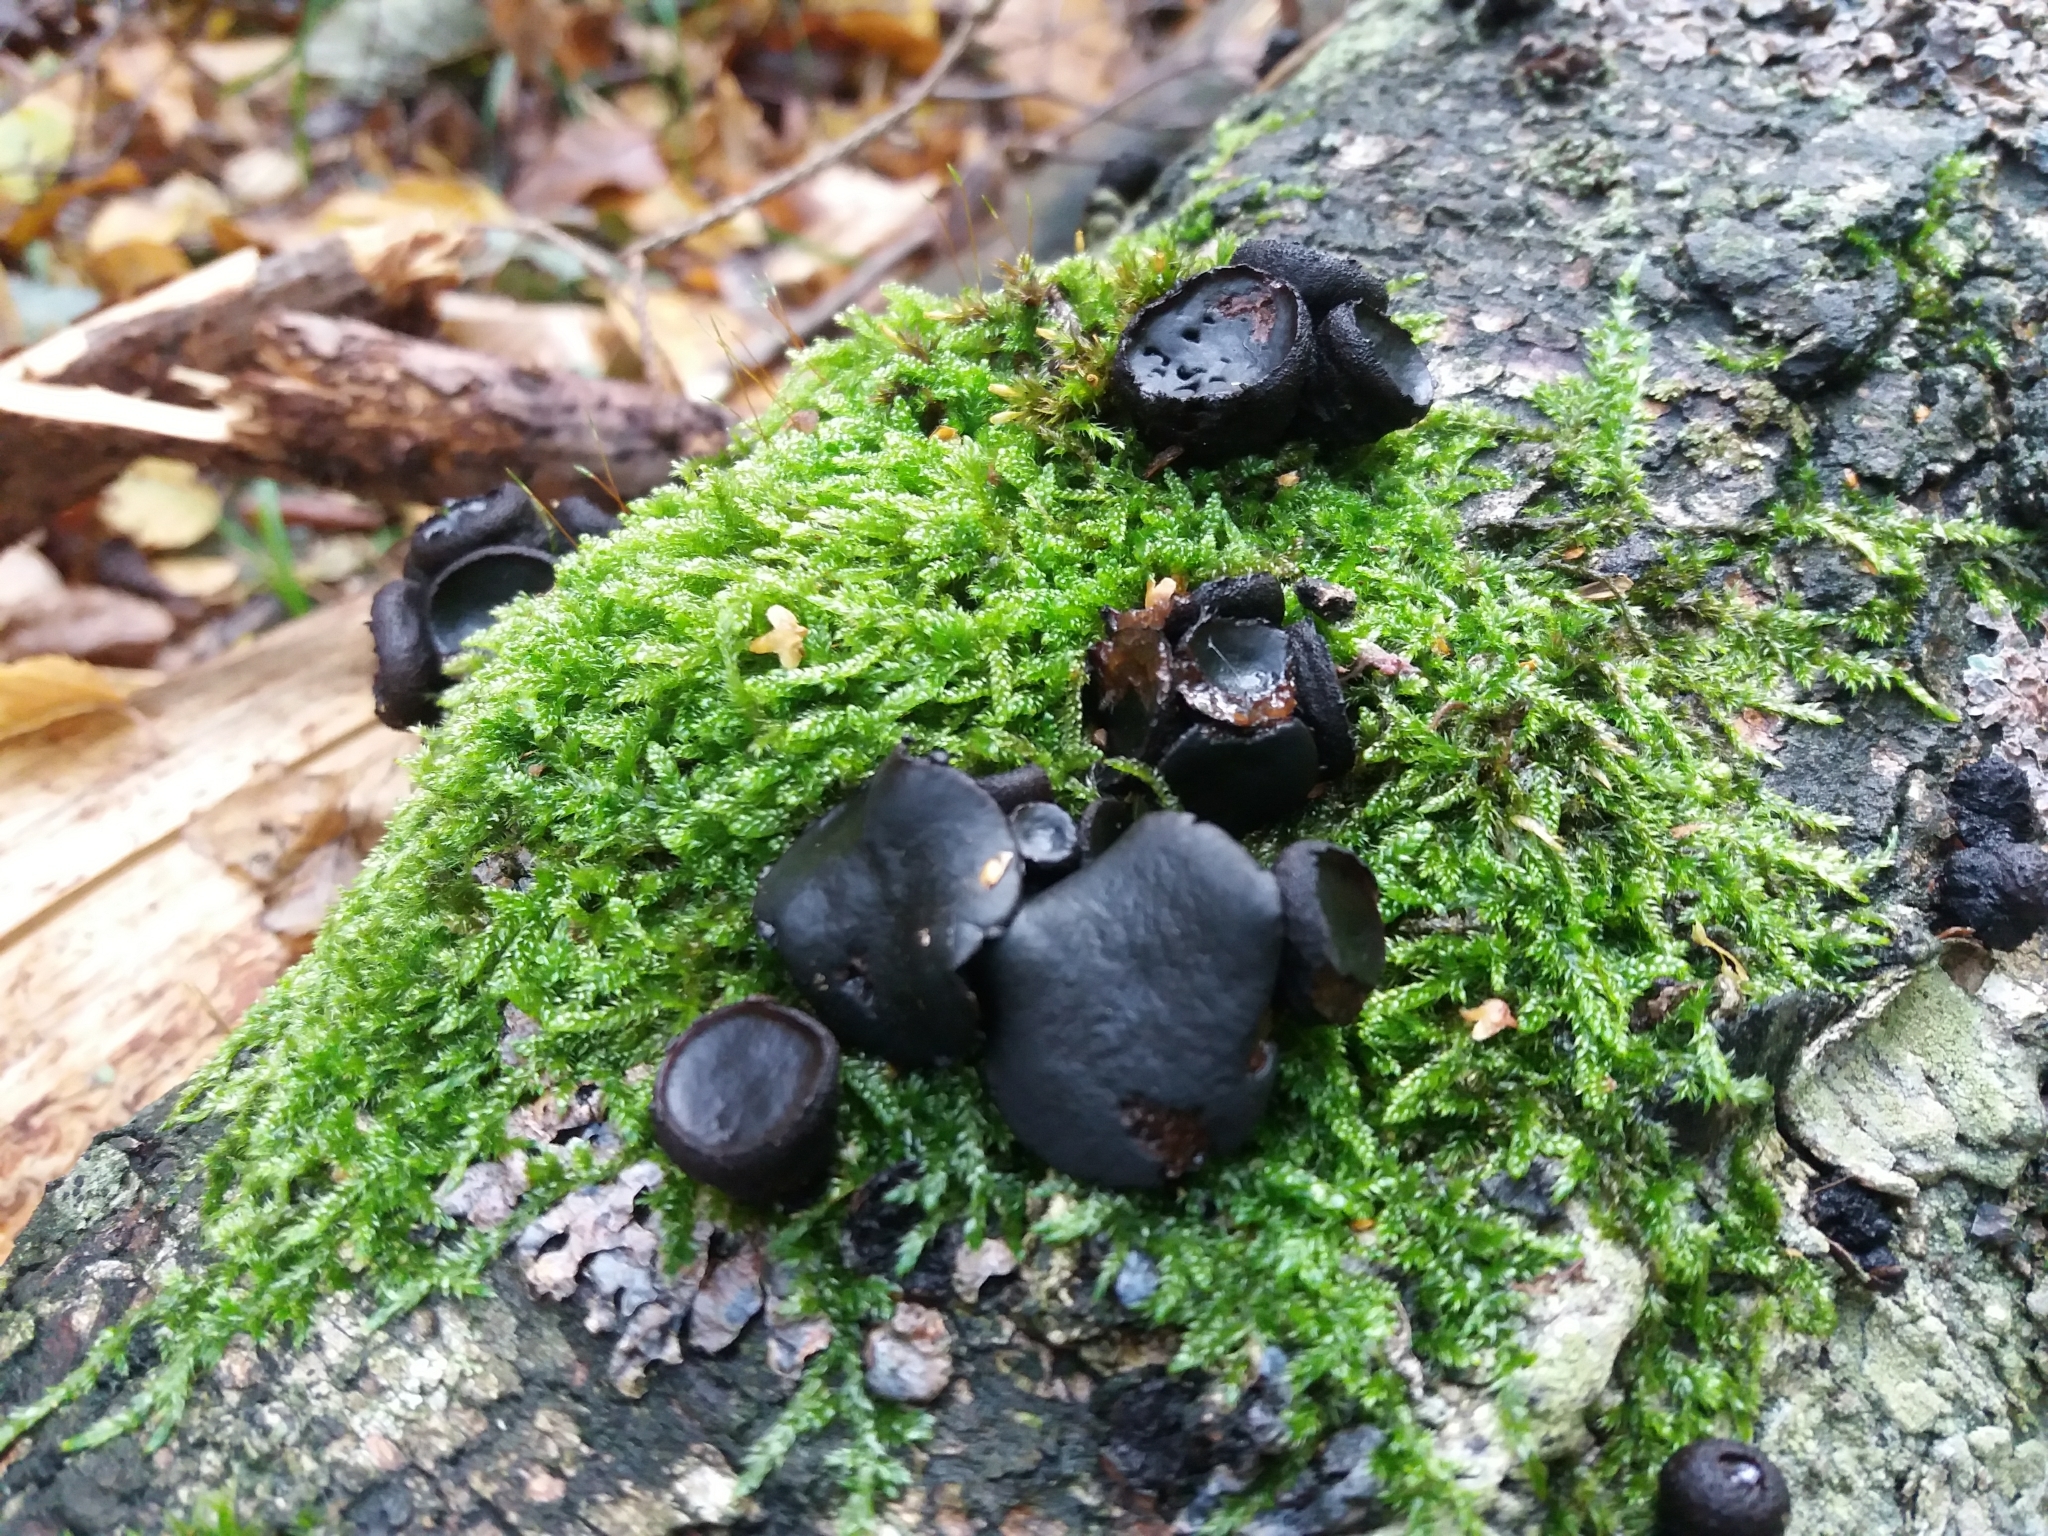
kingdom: Fungi
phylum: Ascomycota
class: Leotiomycetes
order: Phacidiales
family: Phacidiaceae
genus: Bulgaria
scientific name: Bulgaria inquinans
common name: Black bulgar
